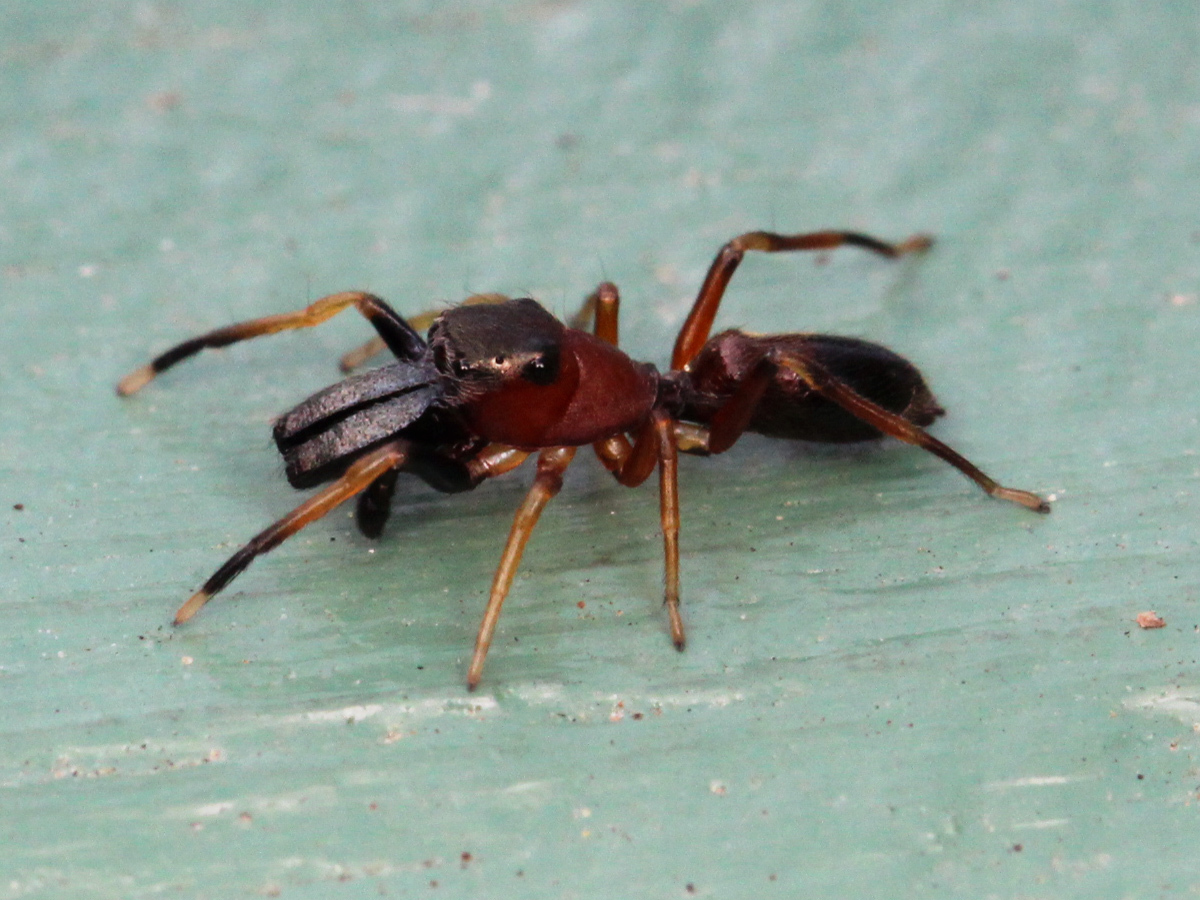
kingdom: Animalia
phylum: Arthropoda
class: Arachnida
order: Araneae
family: Salticidae
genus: Myrmarachne
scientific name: Myrmarachne formicaria
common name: Ant mimic jumping spider
